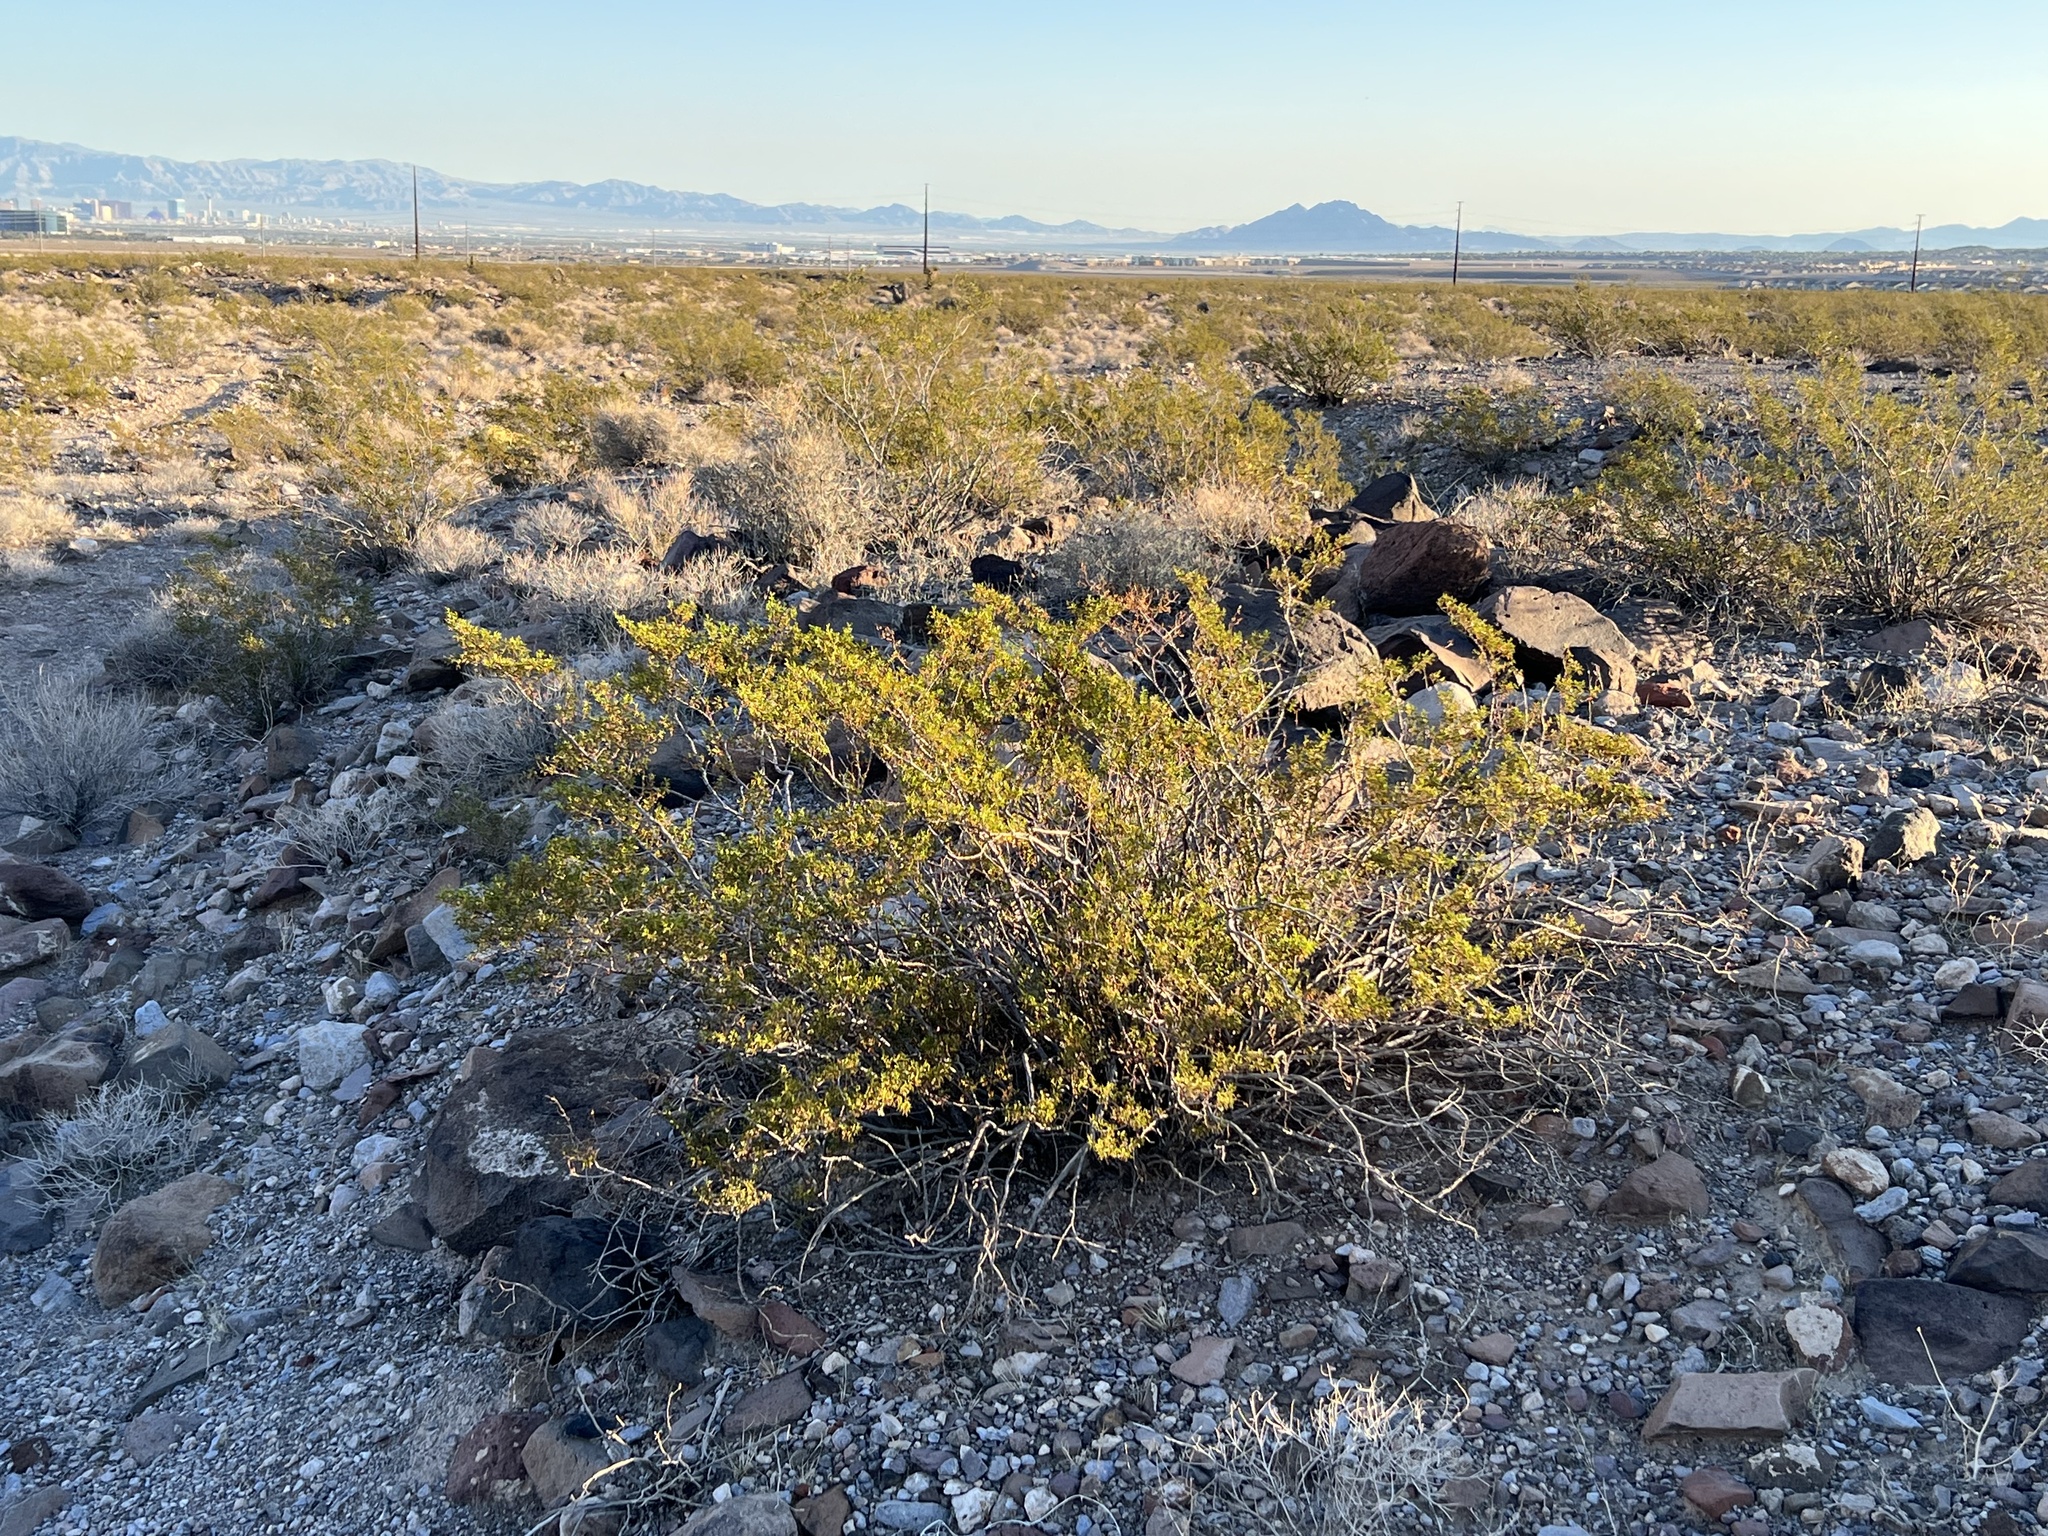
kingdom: Plantae
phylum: Tracheophyta
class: Magnoliopsida
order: Zygophyllales
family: Zygophyllaceae
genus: Larrea
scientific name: Larrea tridentata
